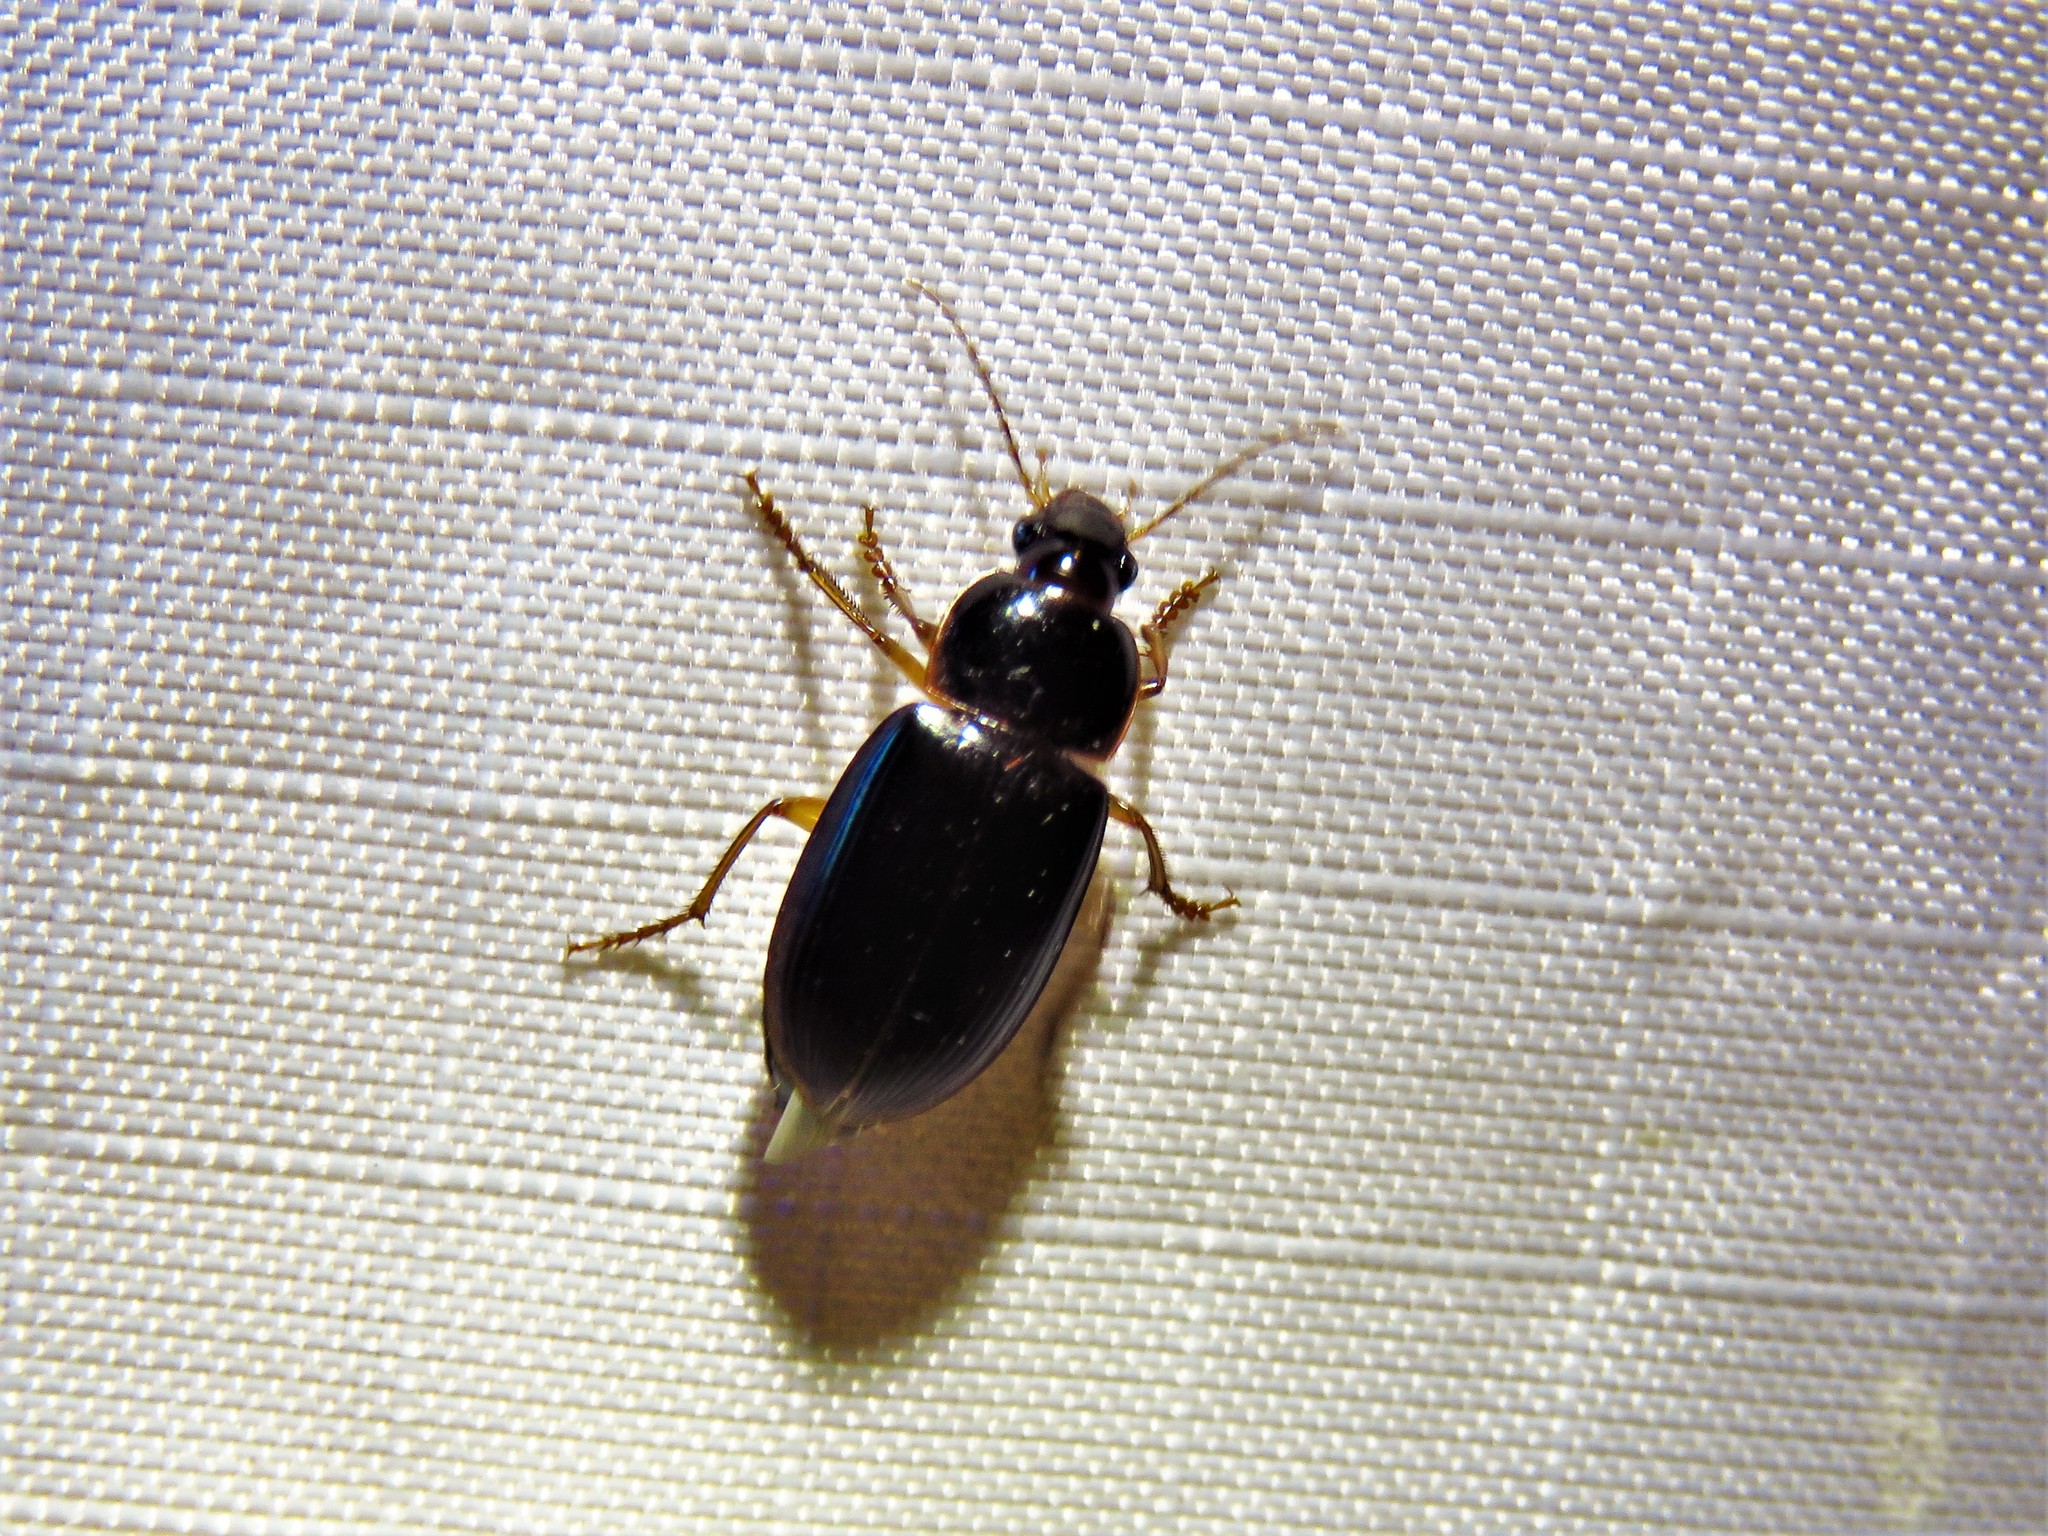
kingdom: Animalia
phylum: Arthropoda
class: Insecta
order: Coleoptera
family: Carabidae
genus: Notiobia
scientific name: Notiobia terminata
